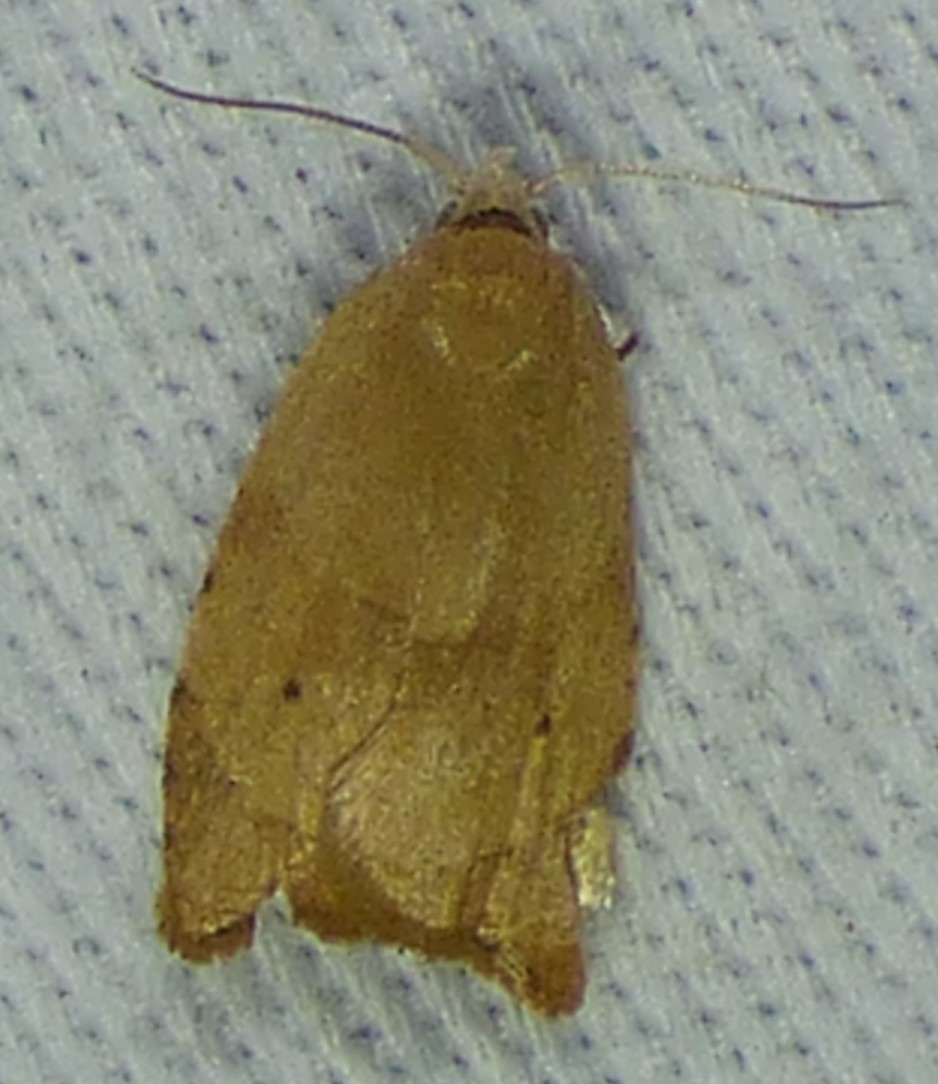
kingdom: Animalia
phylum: Arthropoda
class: Insecta
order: Lepidoptera
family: Tortricidae
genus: Coelostathma
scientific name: Coelostathma discopunctana
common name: Batman moth
